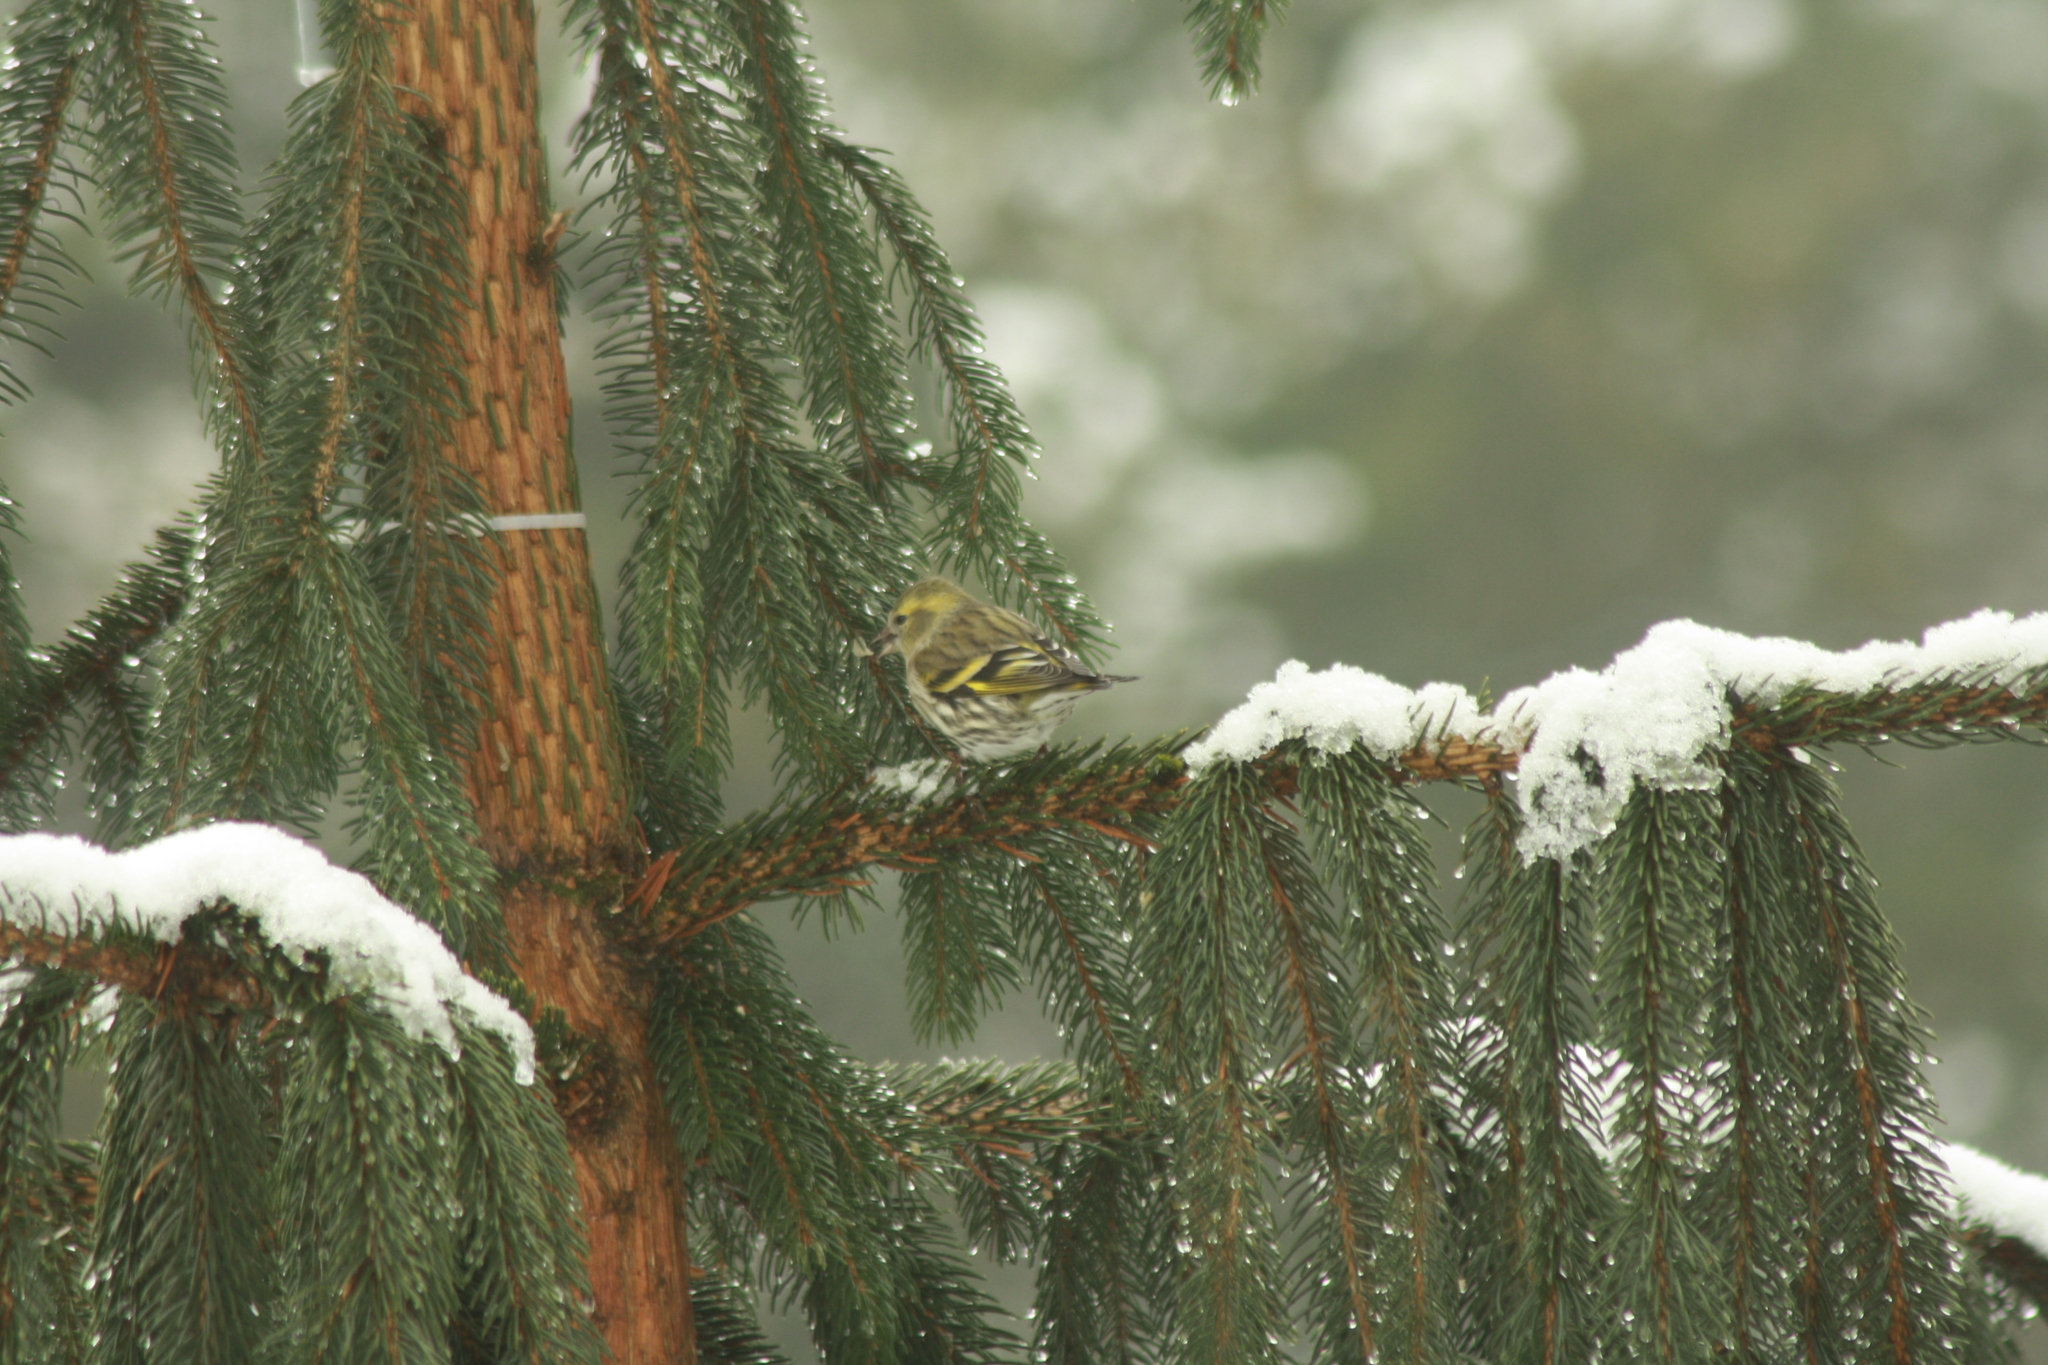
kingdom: Animalia
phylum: Chordata
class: Aves
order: Passeriformes
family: Fringillidae
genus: Spinus
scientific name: Spinus spinus
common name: Eurasian siskin
